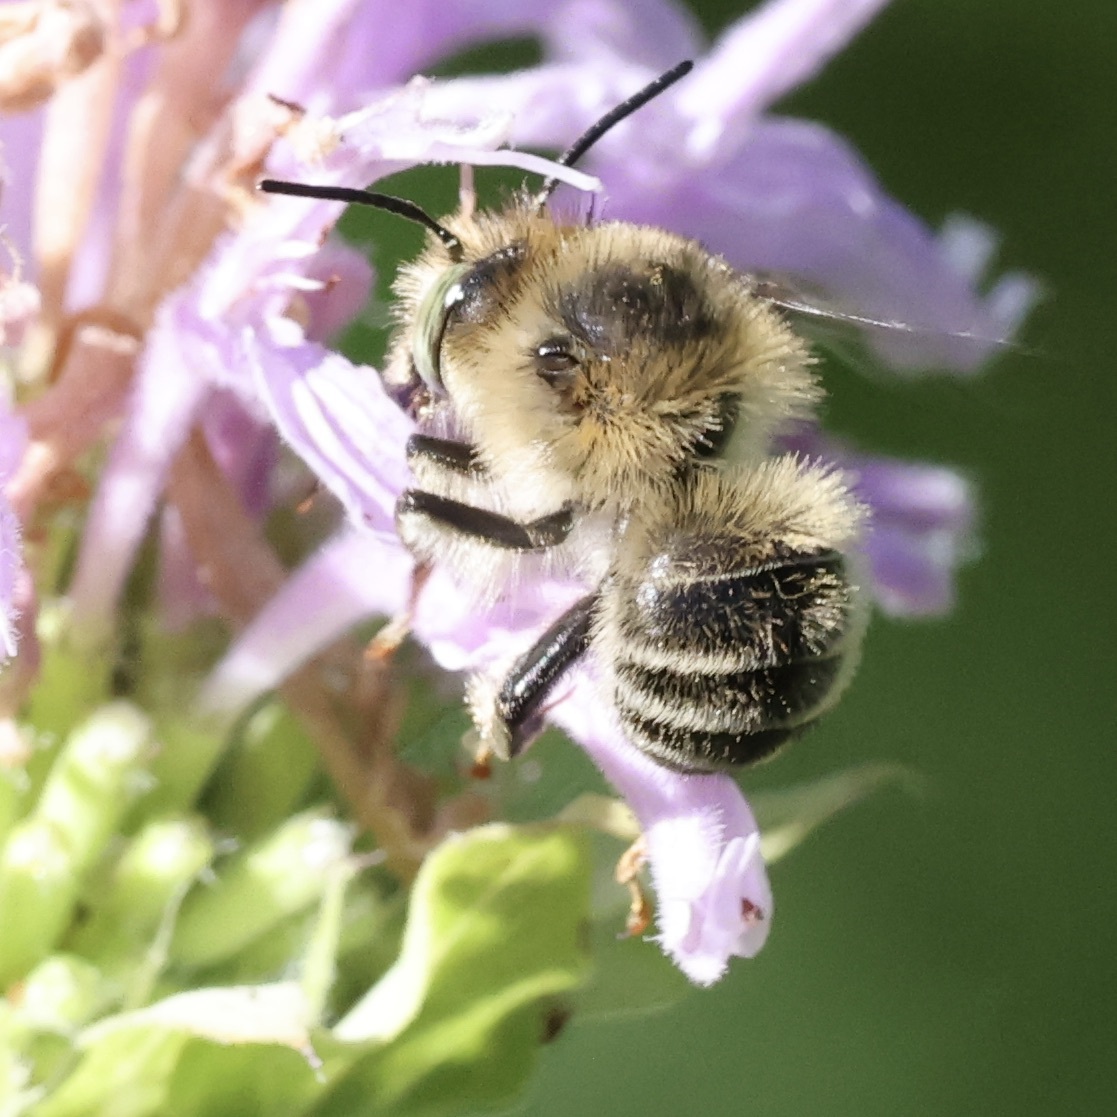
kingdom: Animalia
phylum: Arthropoda
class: Insecta
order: Hymenoptera
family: Apidae
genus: Anthophora
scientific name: Anthophora terminalis
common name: Orange-tipped wood-digger bee
